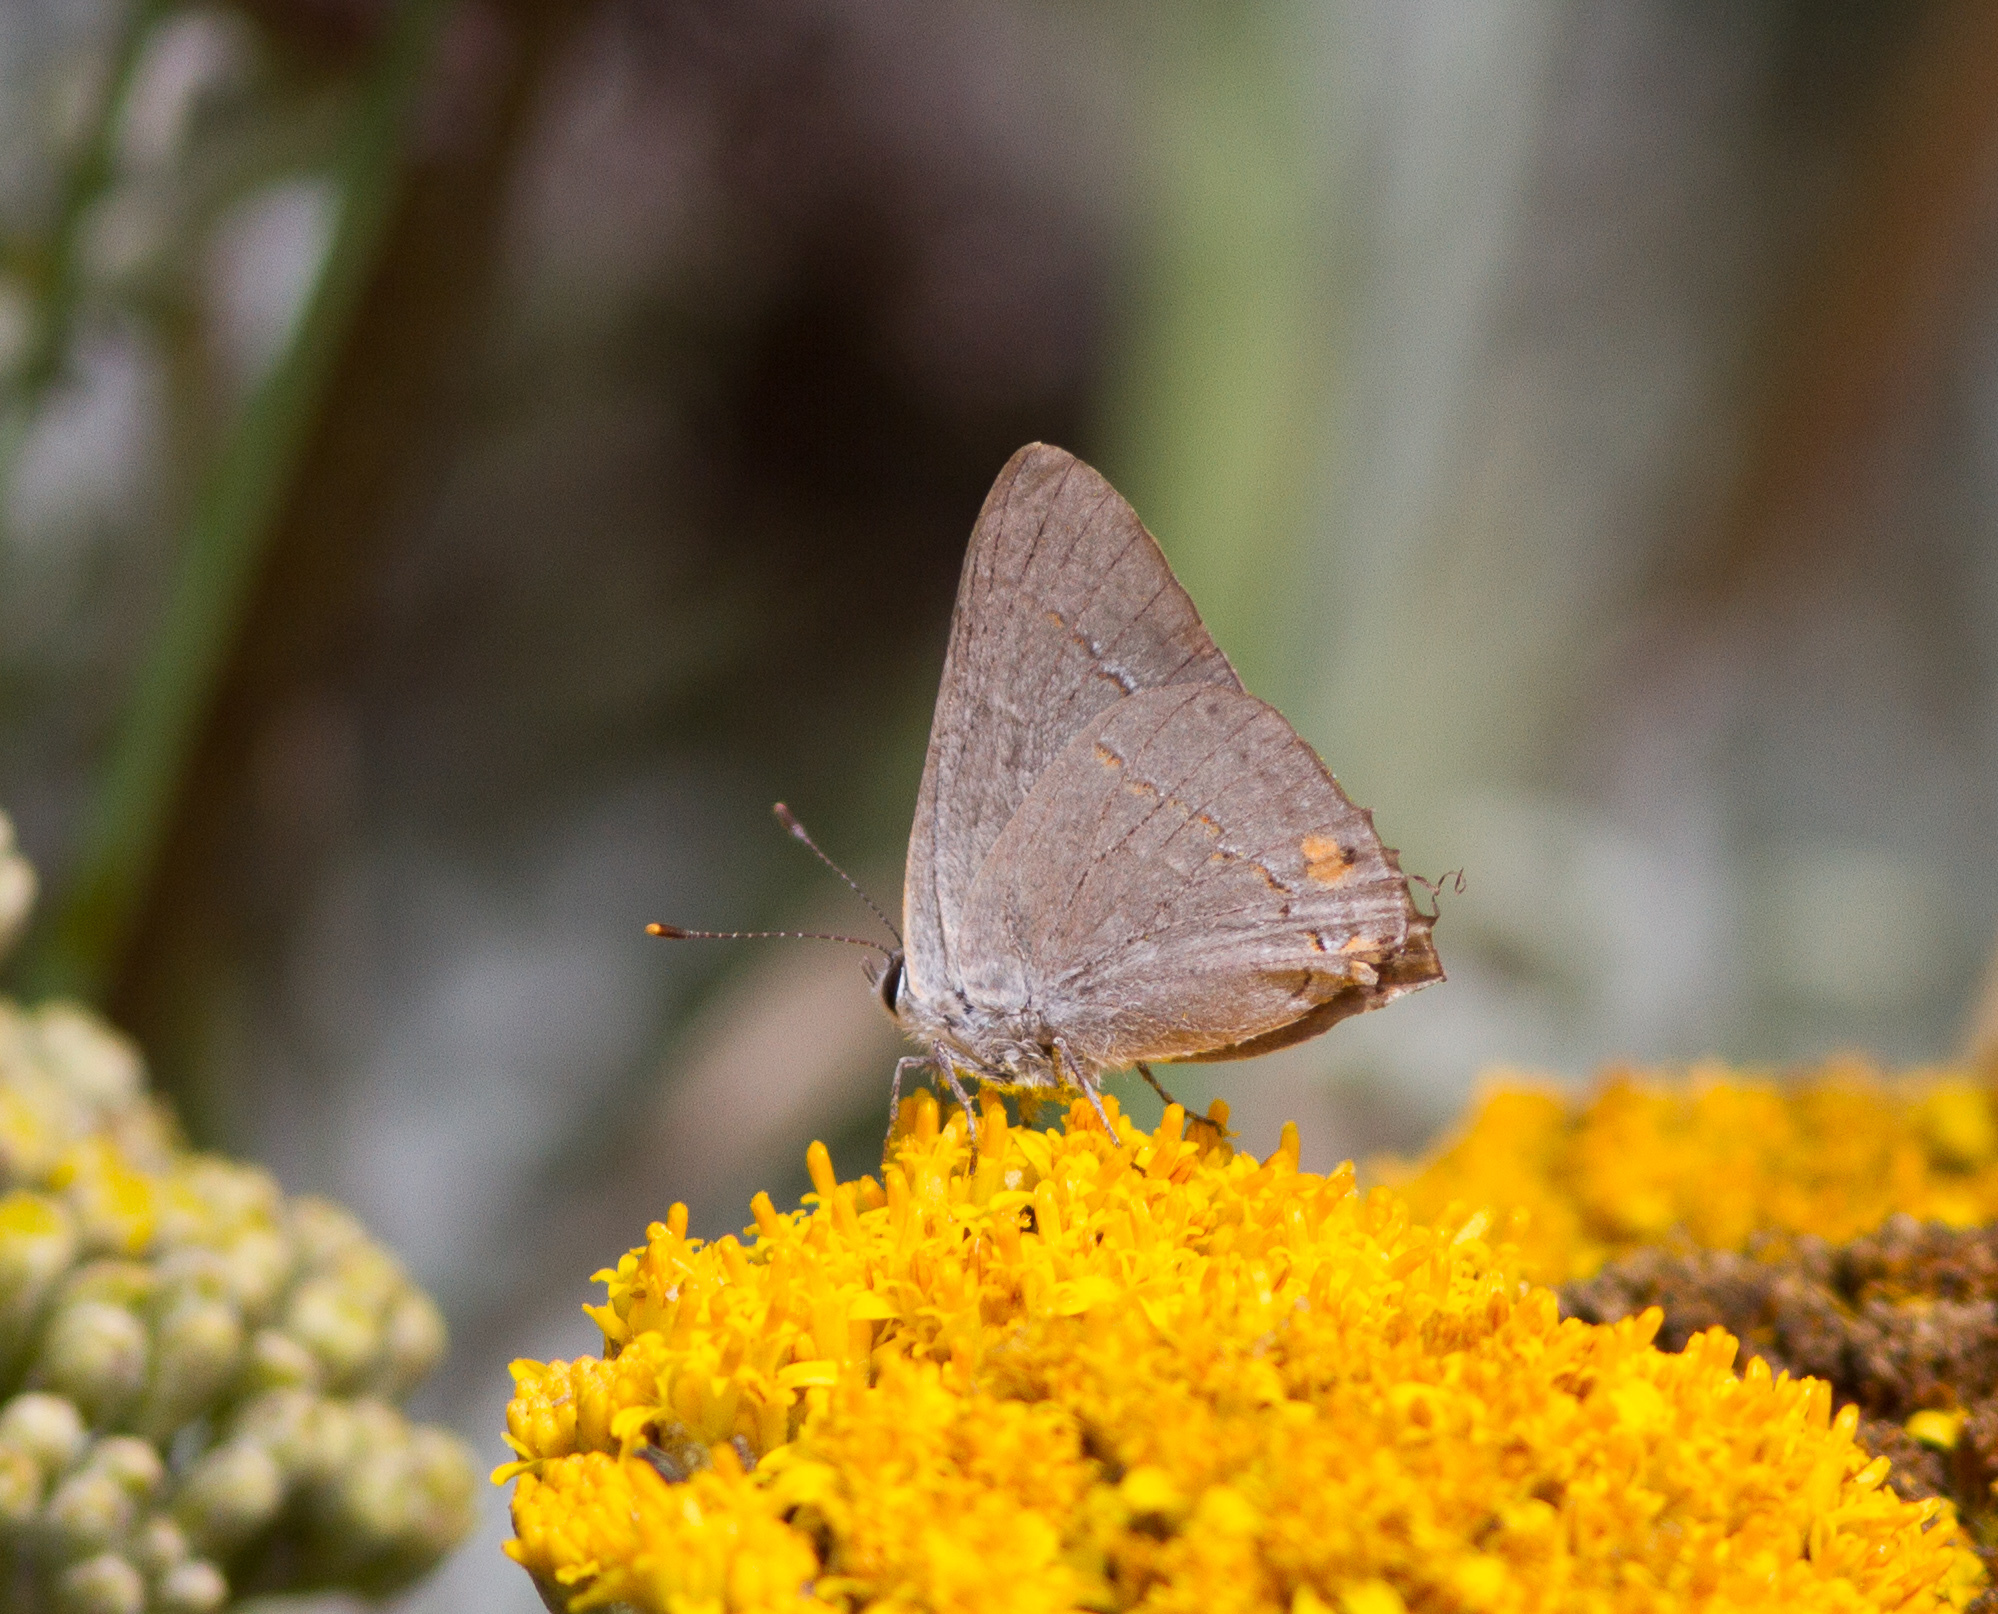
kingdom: Animalia
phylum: Arthropoda
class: Insecta
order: Lepidoptera
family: Lycaenidae
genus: Strymon
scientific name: Strymon melinus
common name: Gray hairstreak
